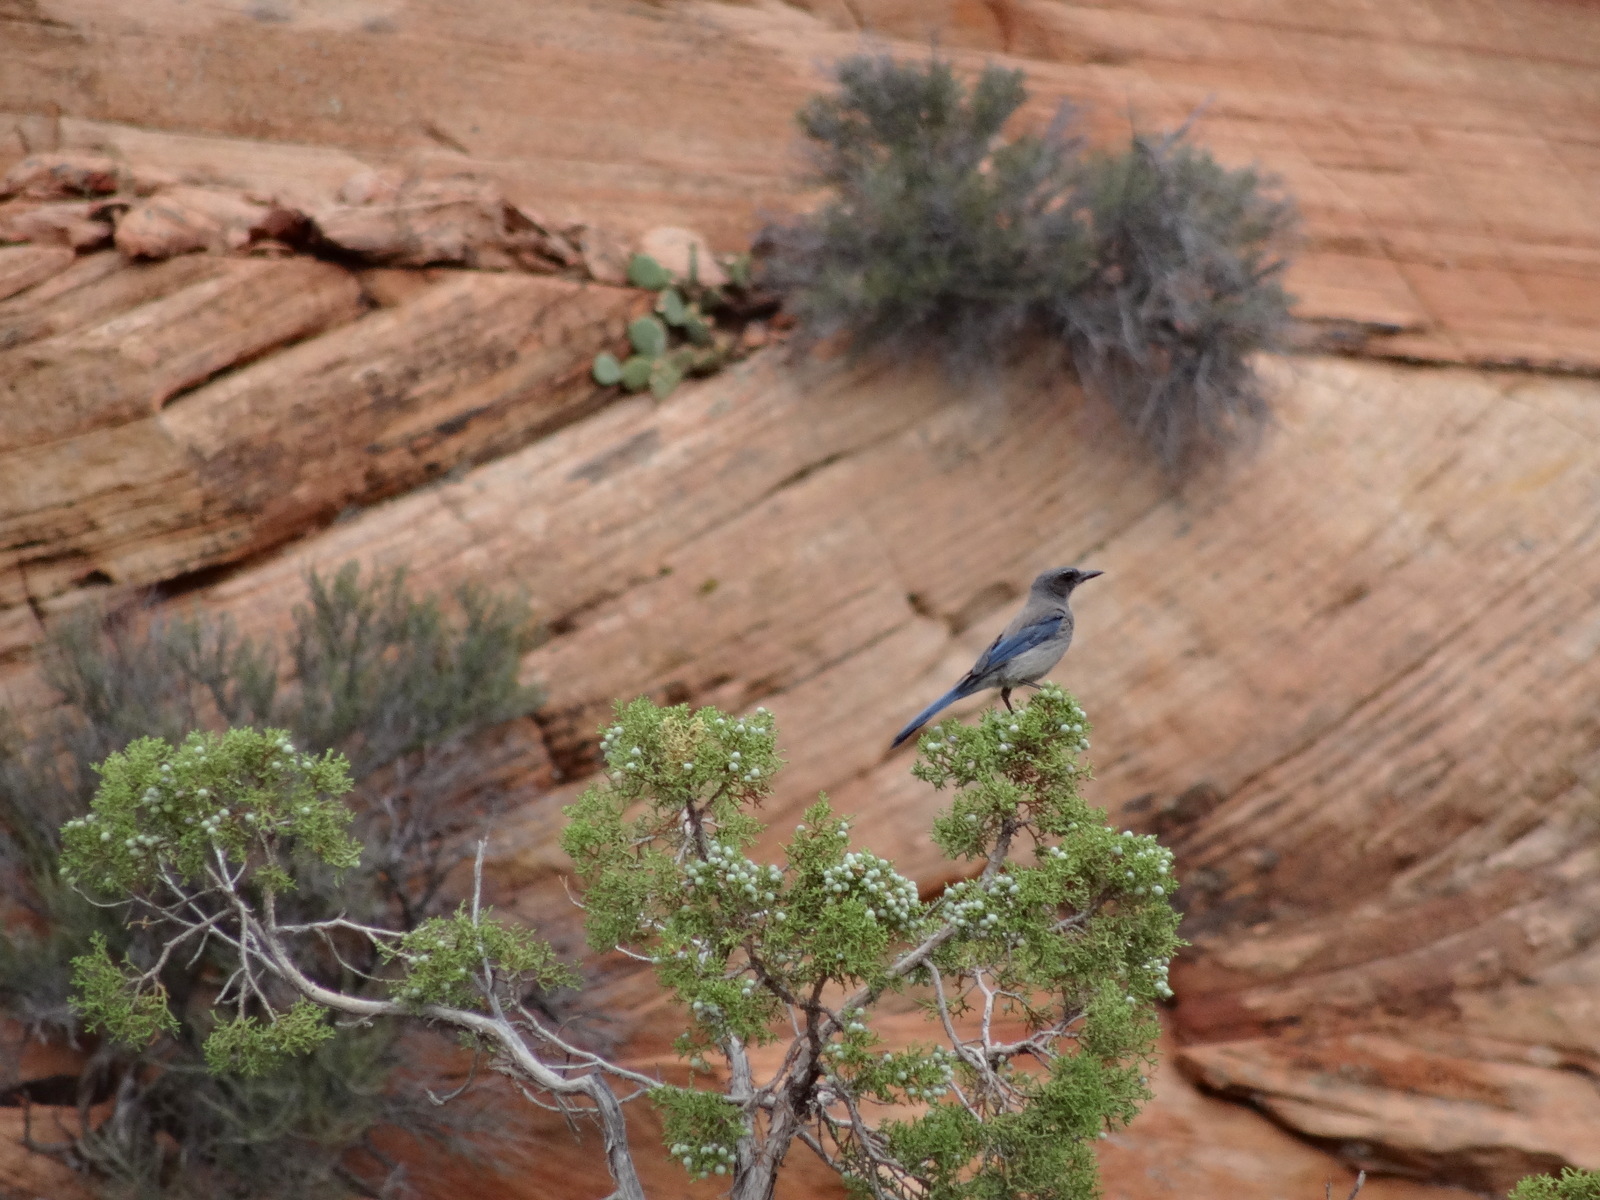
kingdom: Animalia
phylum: Chordata
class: Aves
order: Passeriformes
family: Corvidae
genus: Aphelocoma
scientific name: Aphelocoma woodhouseii
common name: Woodhouse's scrub-jay
